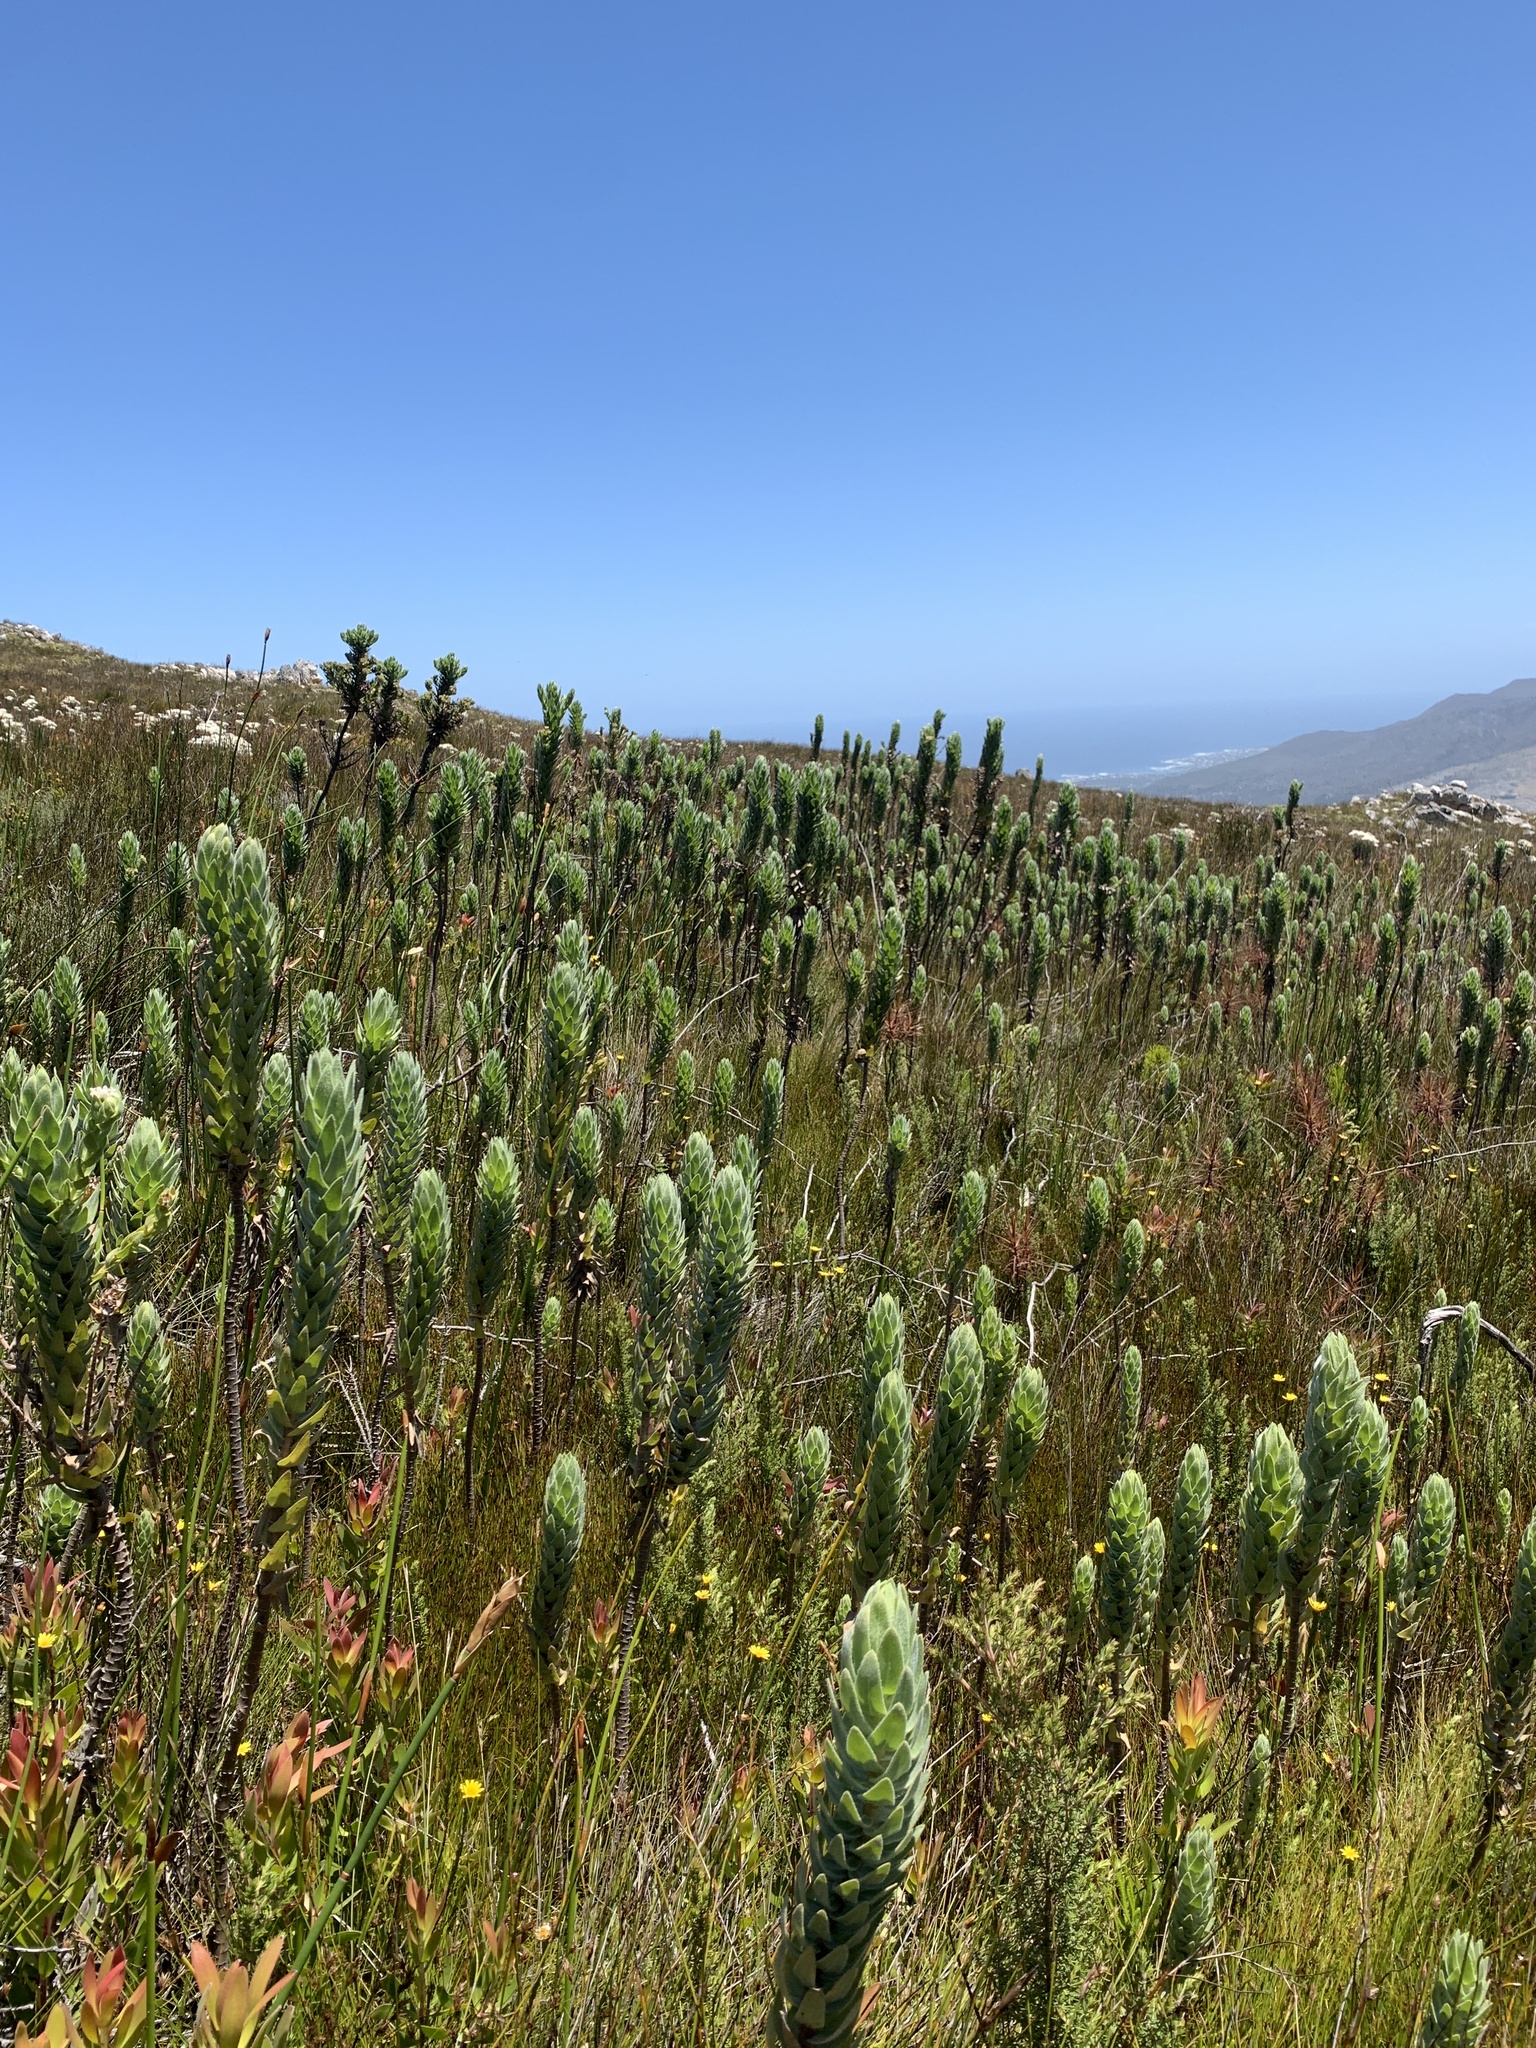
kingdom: Plantae
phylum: Tracheophyta
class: Magnoliopsida
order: Asterales
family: Asteraceae
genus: Osmitopsis
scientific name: Osmitopsis asteriscoides
